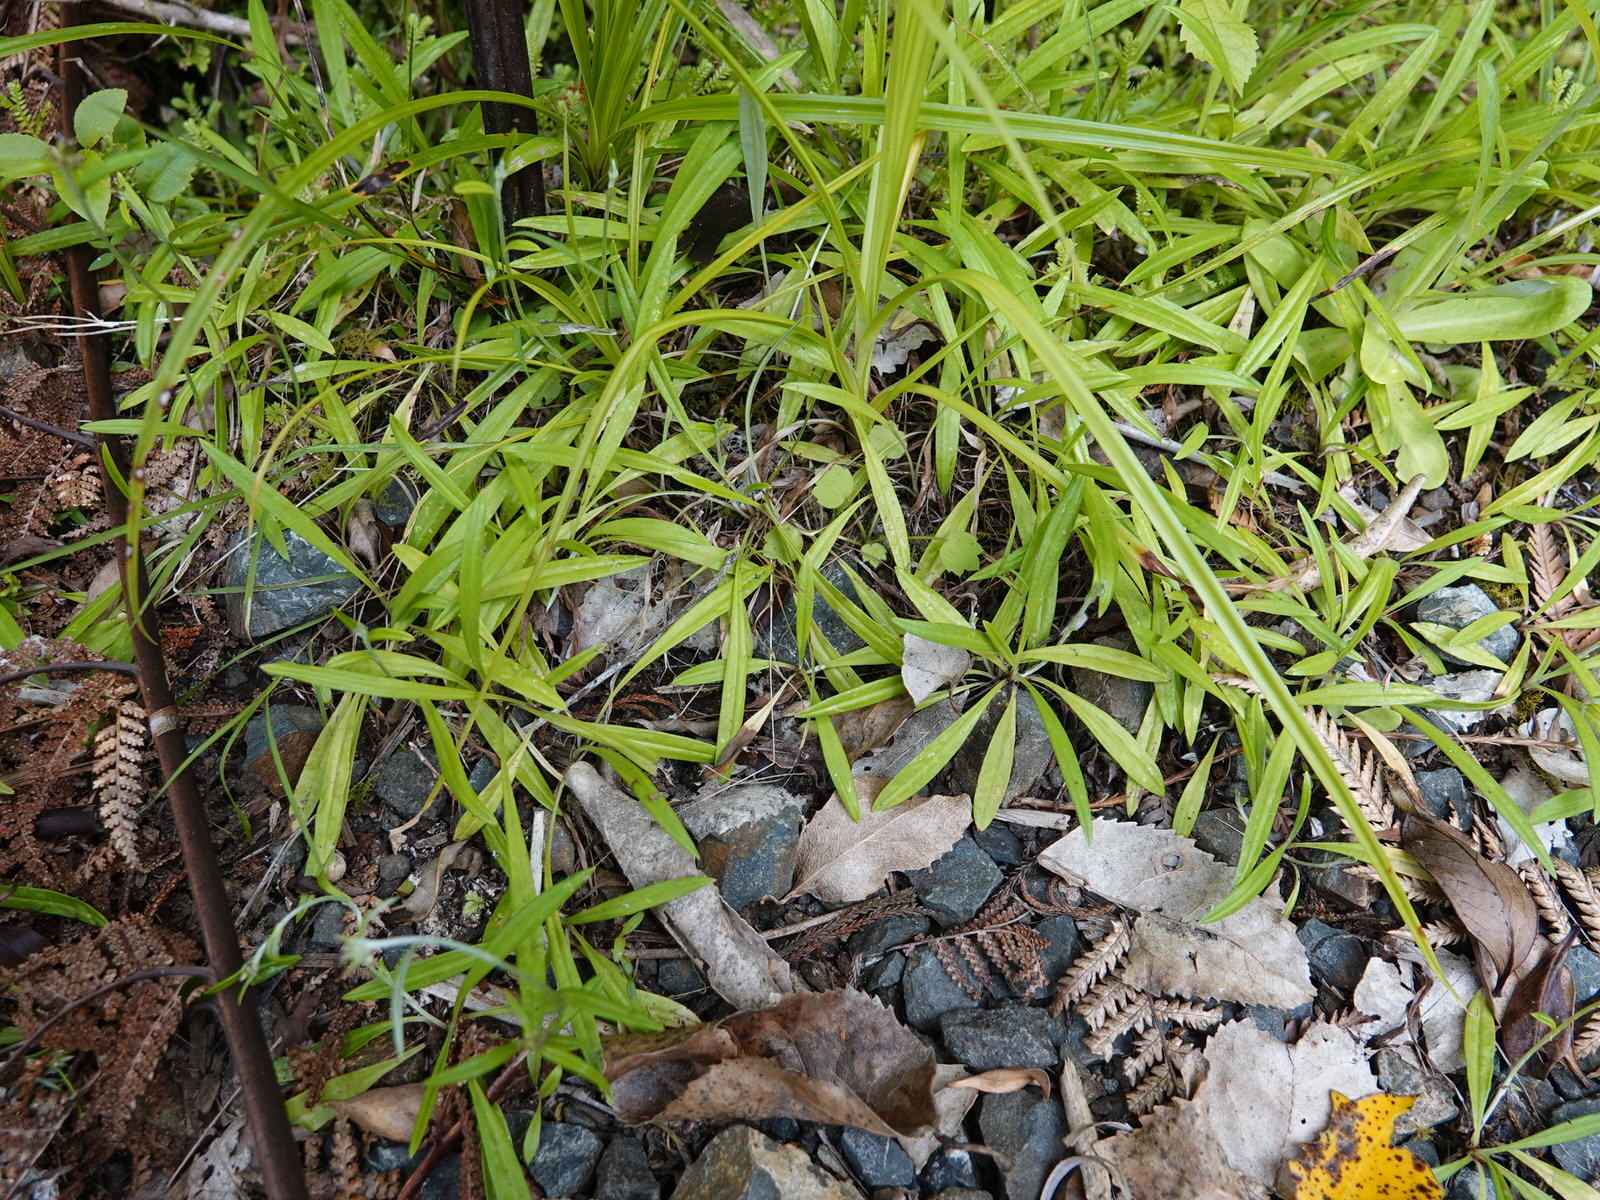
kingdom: Plantae
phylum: Tracheophyta
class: Magnoliopsida
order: Asterales
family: Asteraceae
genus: Euchiton
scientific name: Euchiton japonicus
